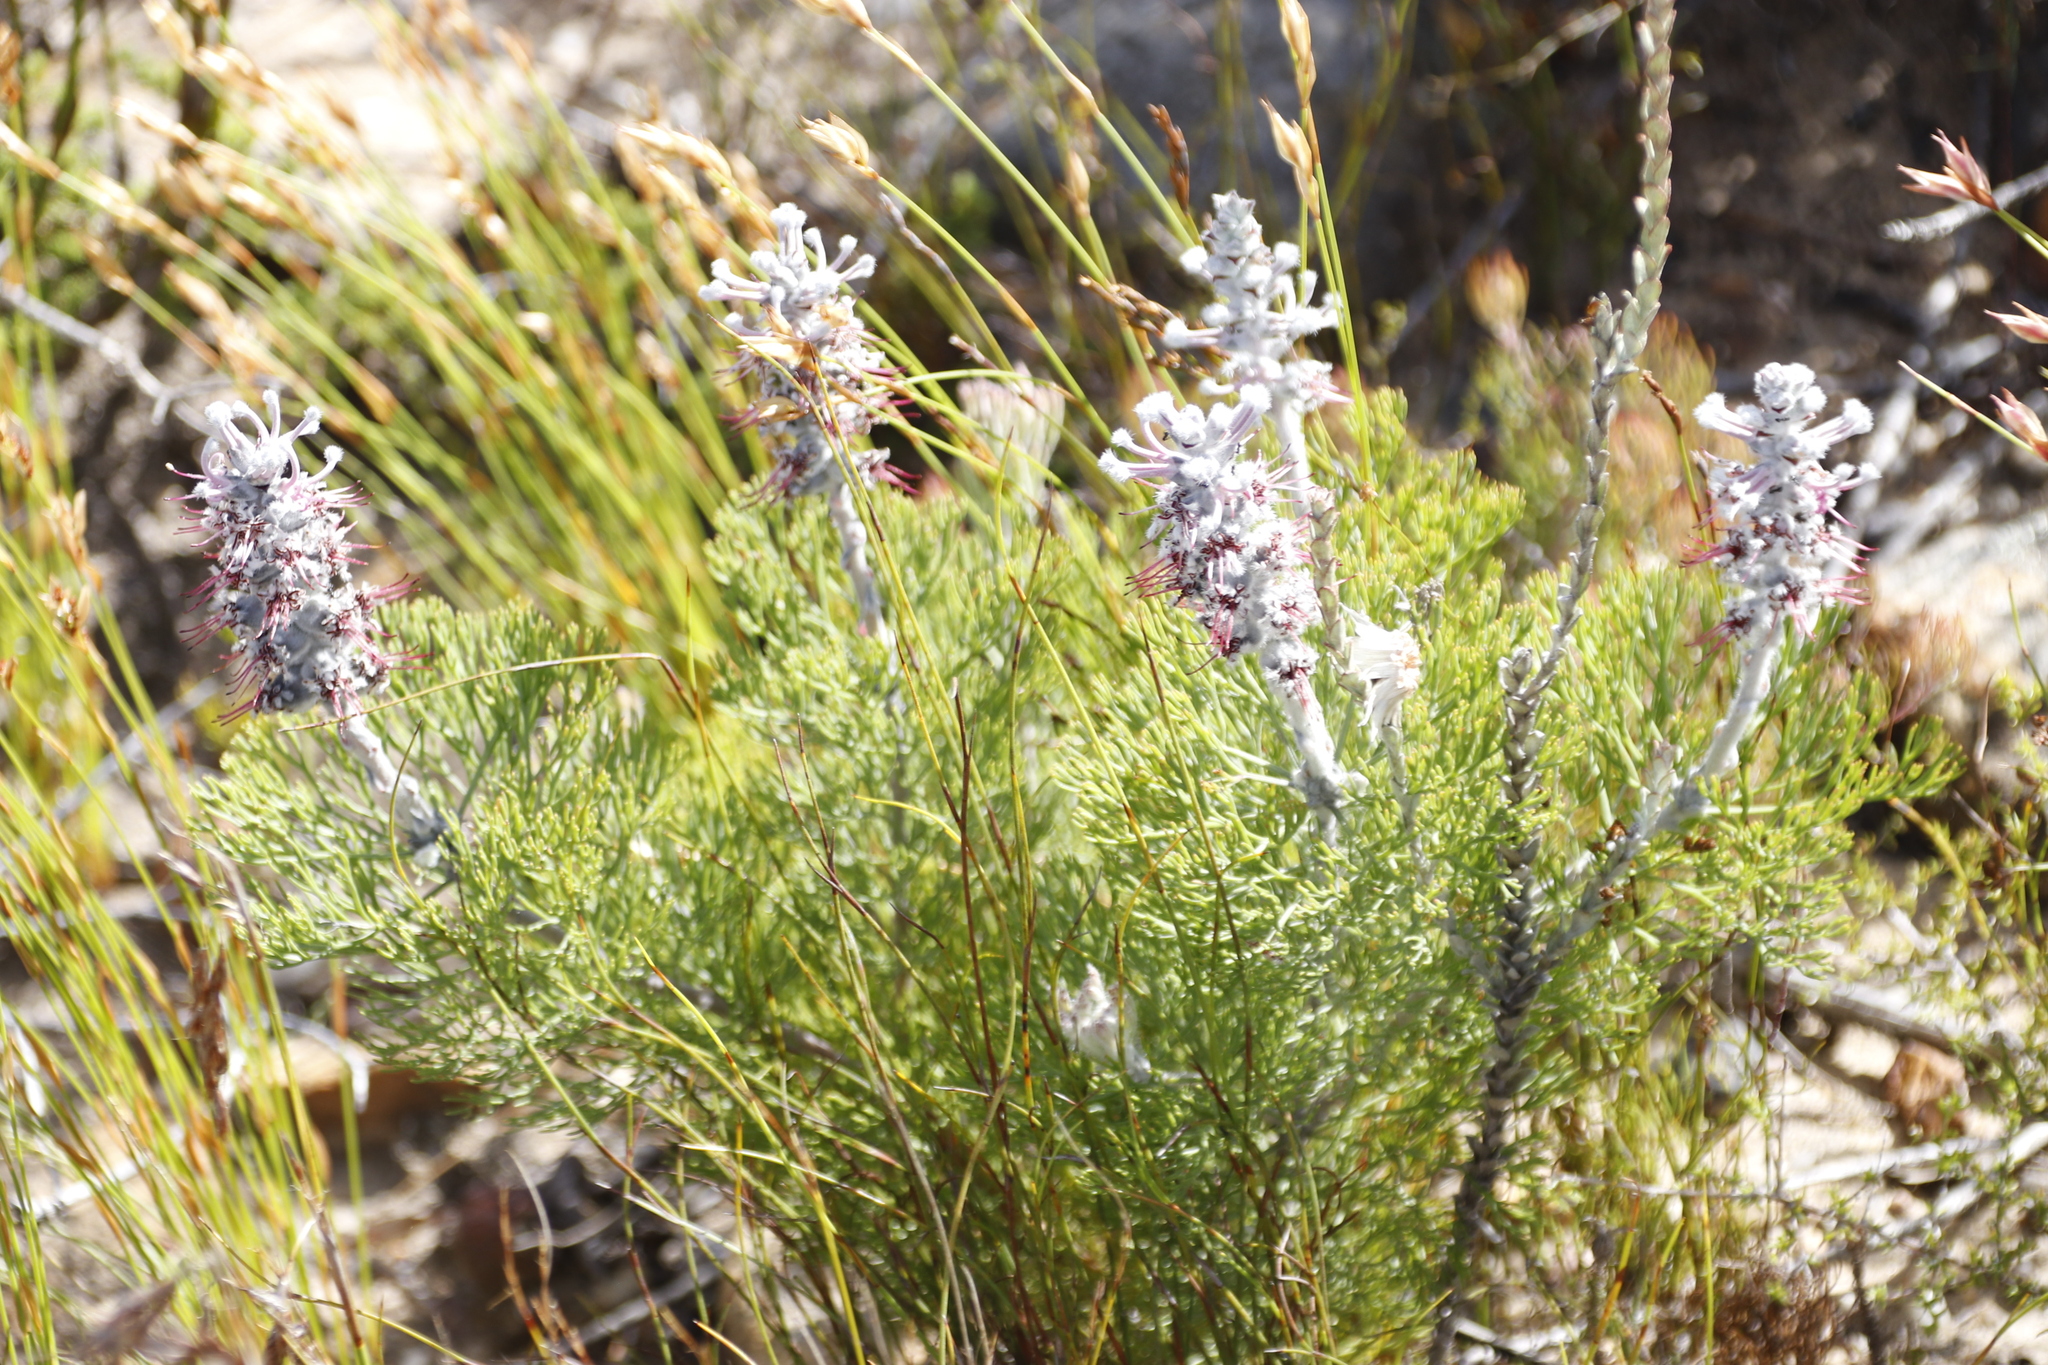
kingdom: Plantae
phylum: Tracheophyta
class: Magnoliopsida
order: Proteales
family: Proteaceae
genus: Paranomus
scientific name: Paranomus bolusii
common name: Overberg sceptre
